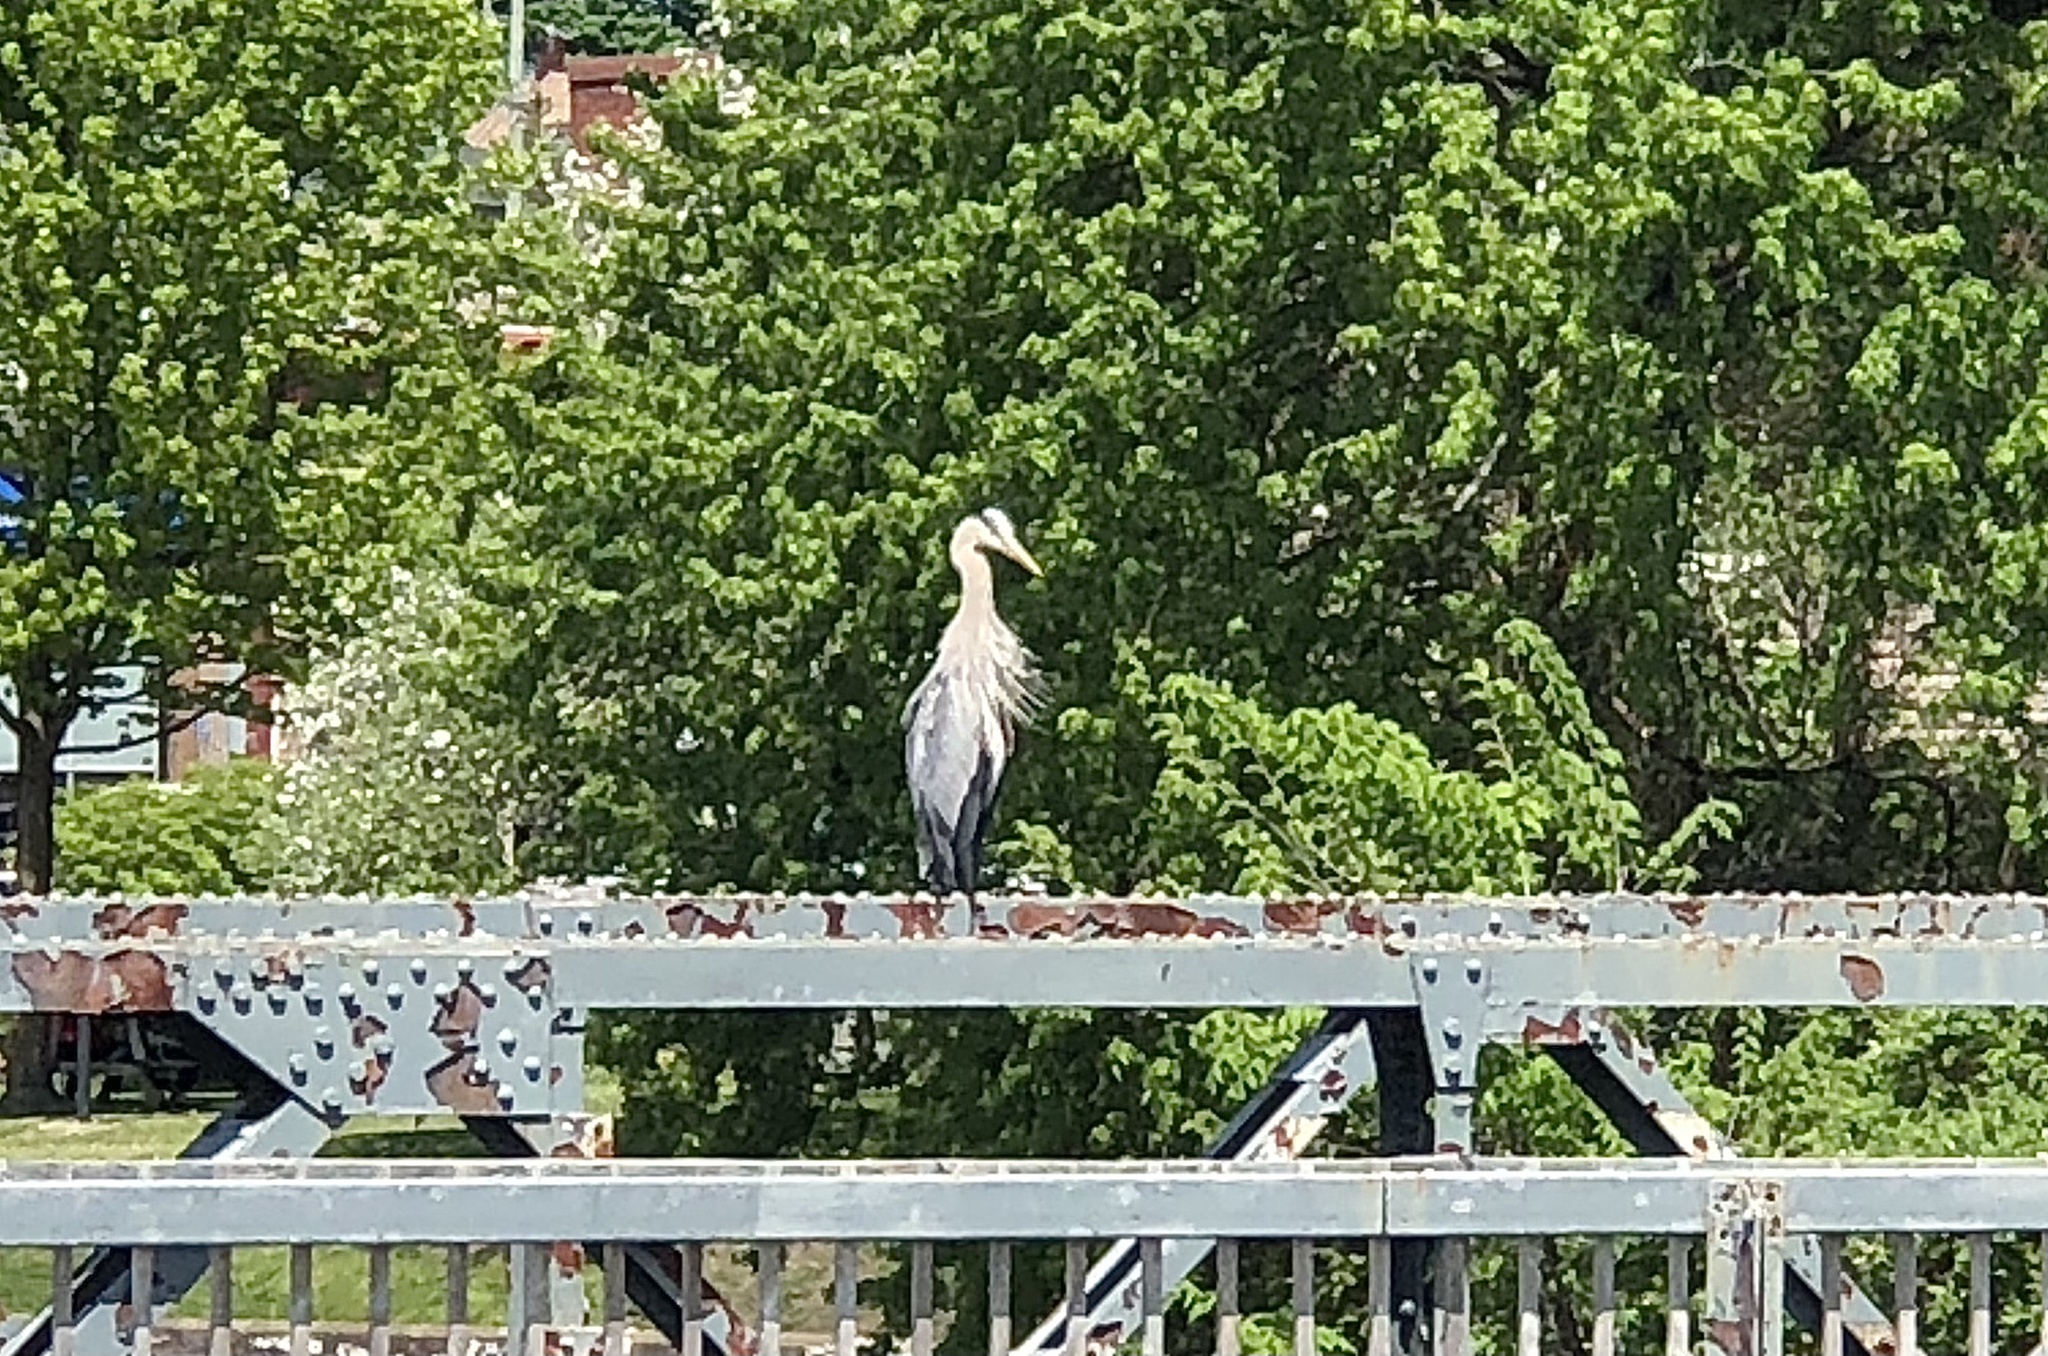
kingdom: Animalia
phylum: Chordata
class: Aves
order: Pelecaniformes
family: Ardeidae
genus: Ardea
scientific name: Ardea herodias
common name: Great blue heron
